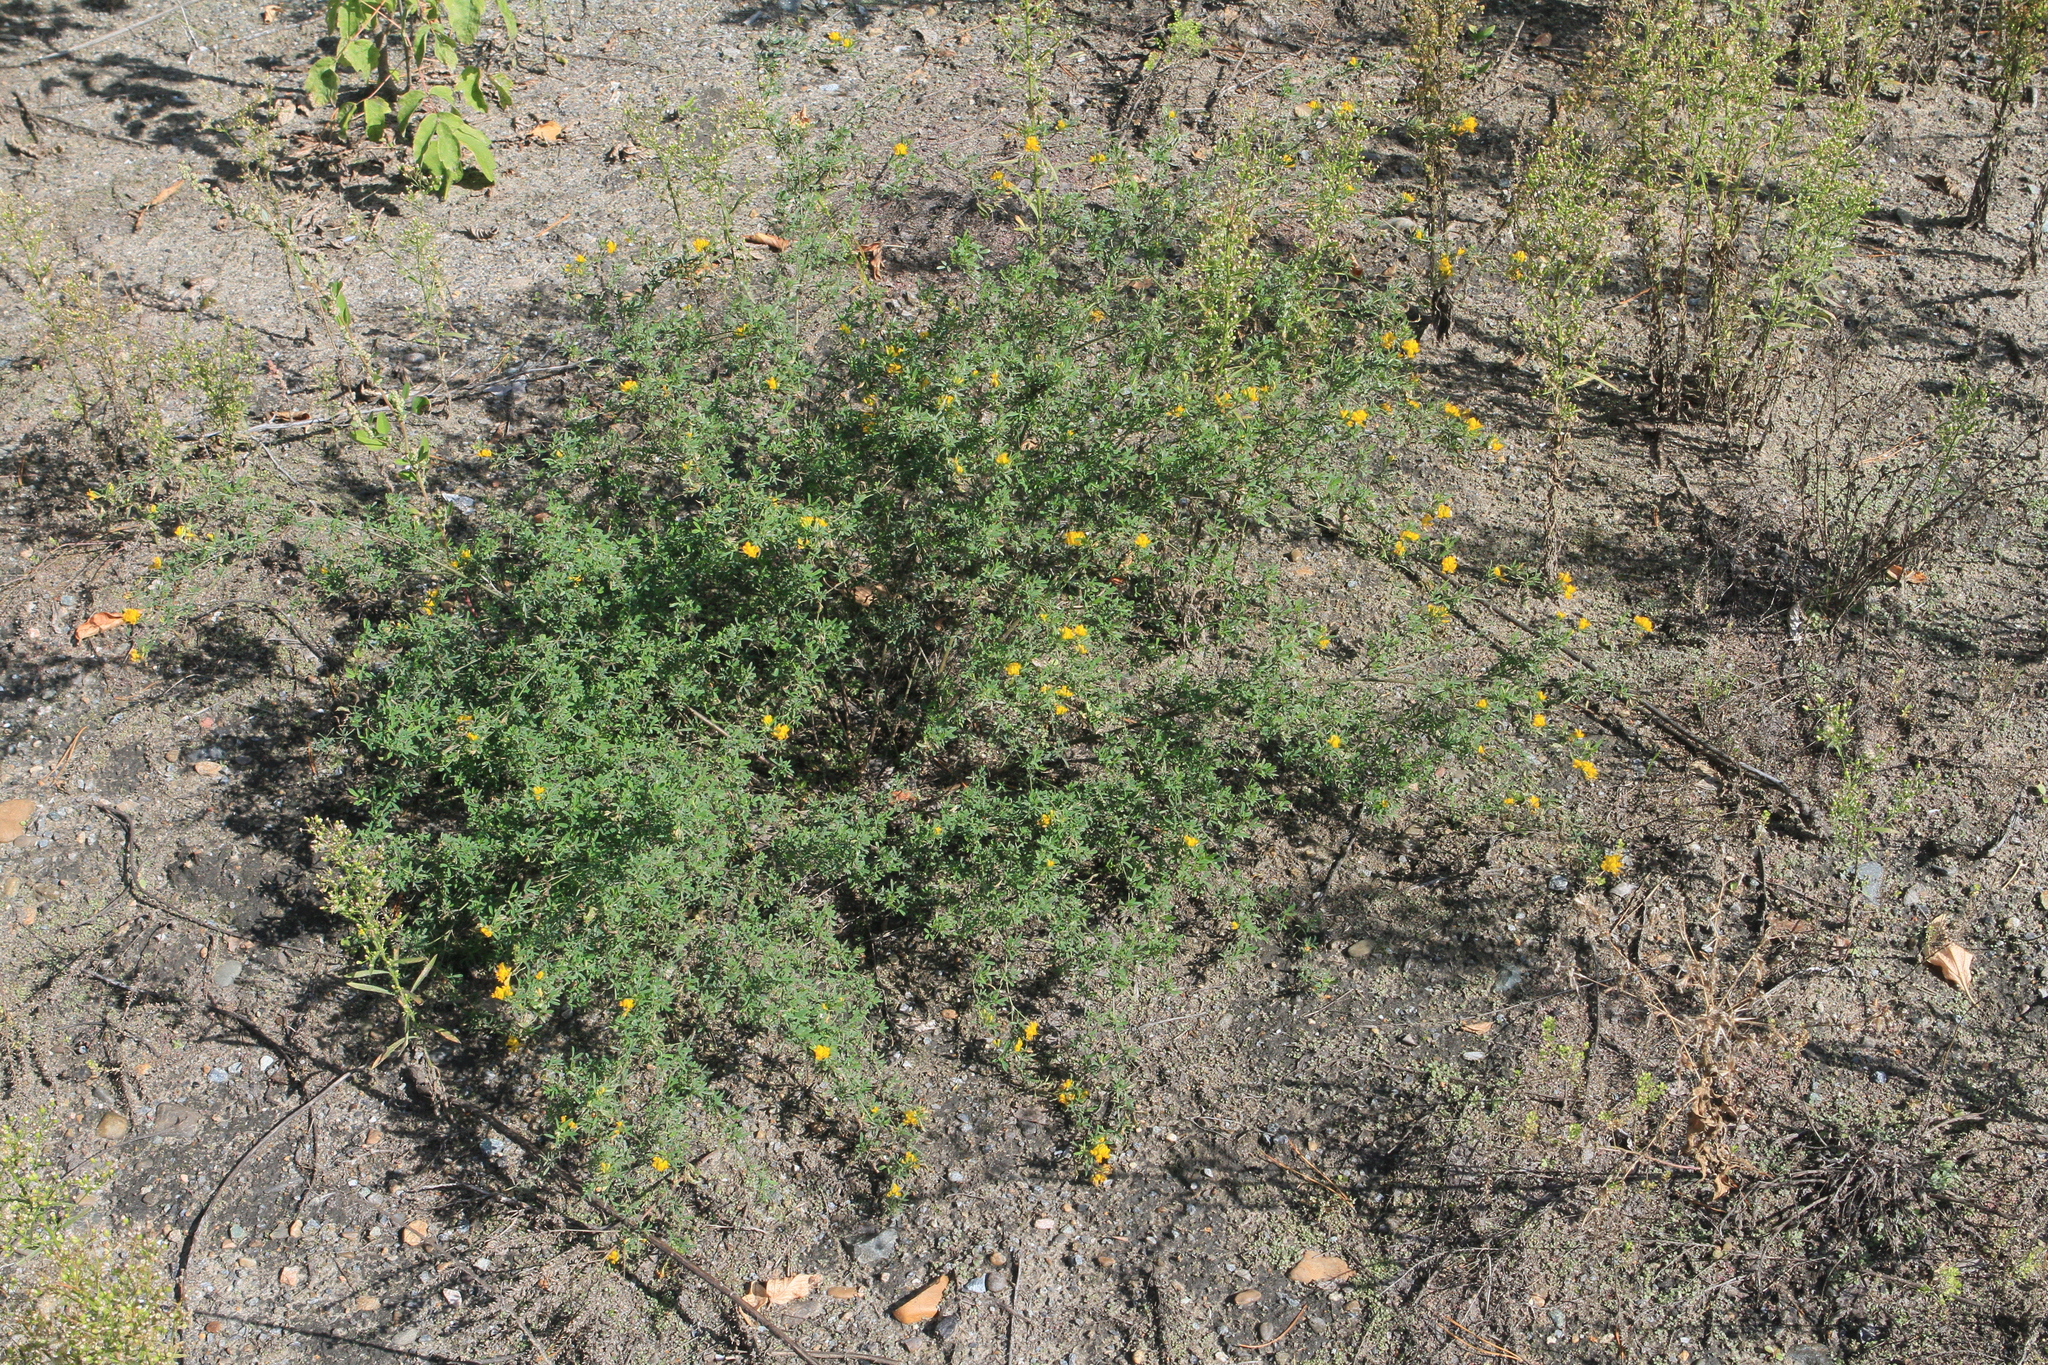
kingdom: Plantae
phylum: Tracheophyta
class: Magnoliopsida
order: Fabales
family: Fabaceae
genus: Medicago
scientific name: Medicago falcata
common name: Sickle medick
